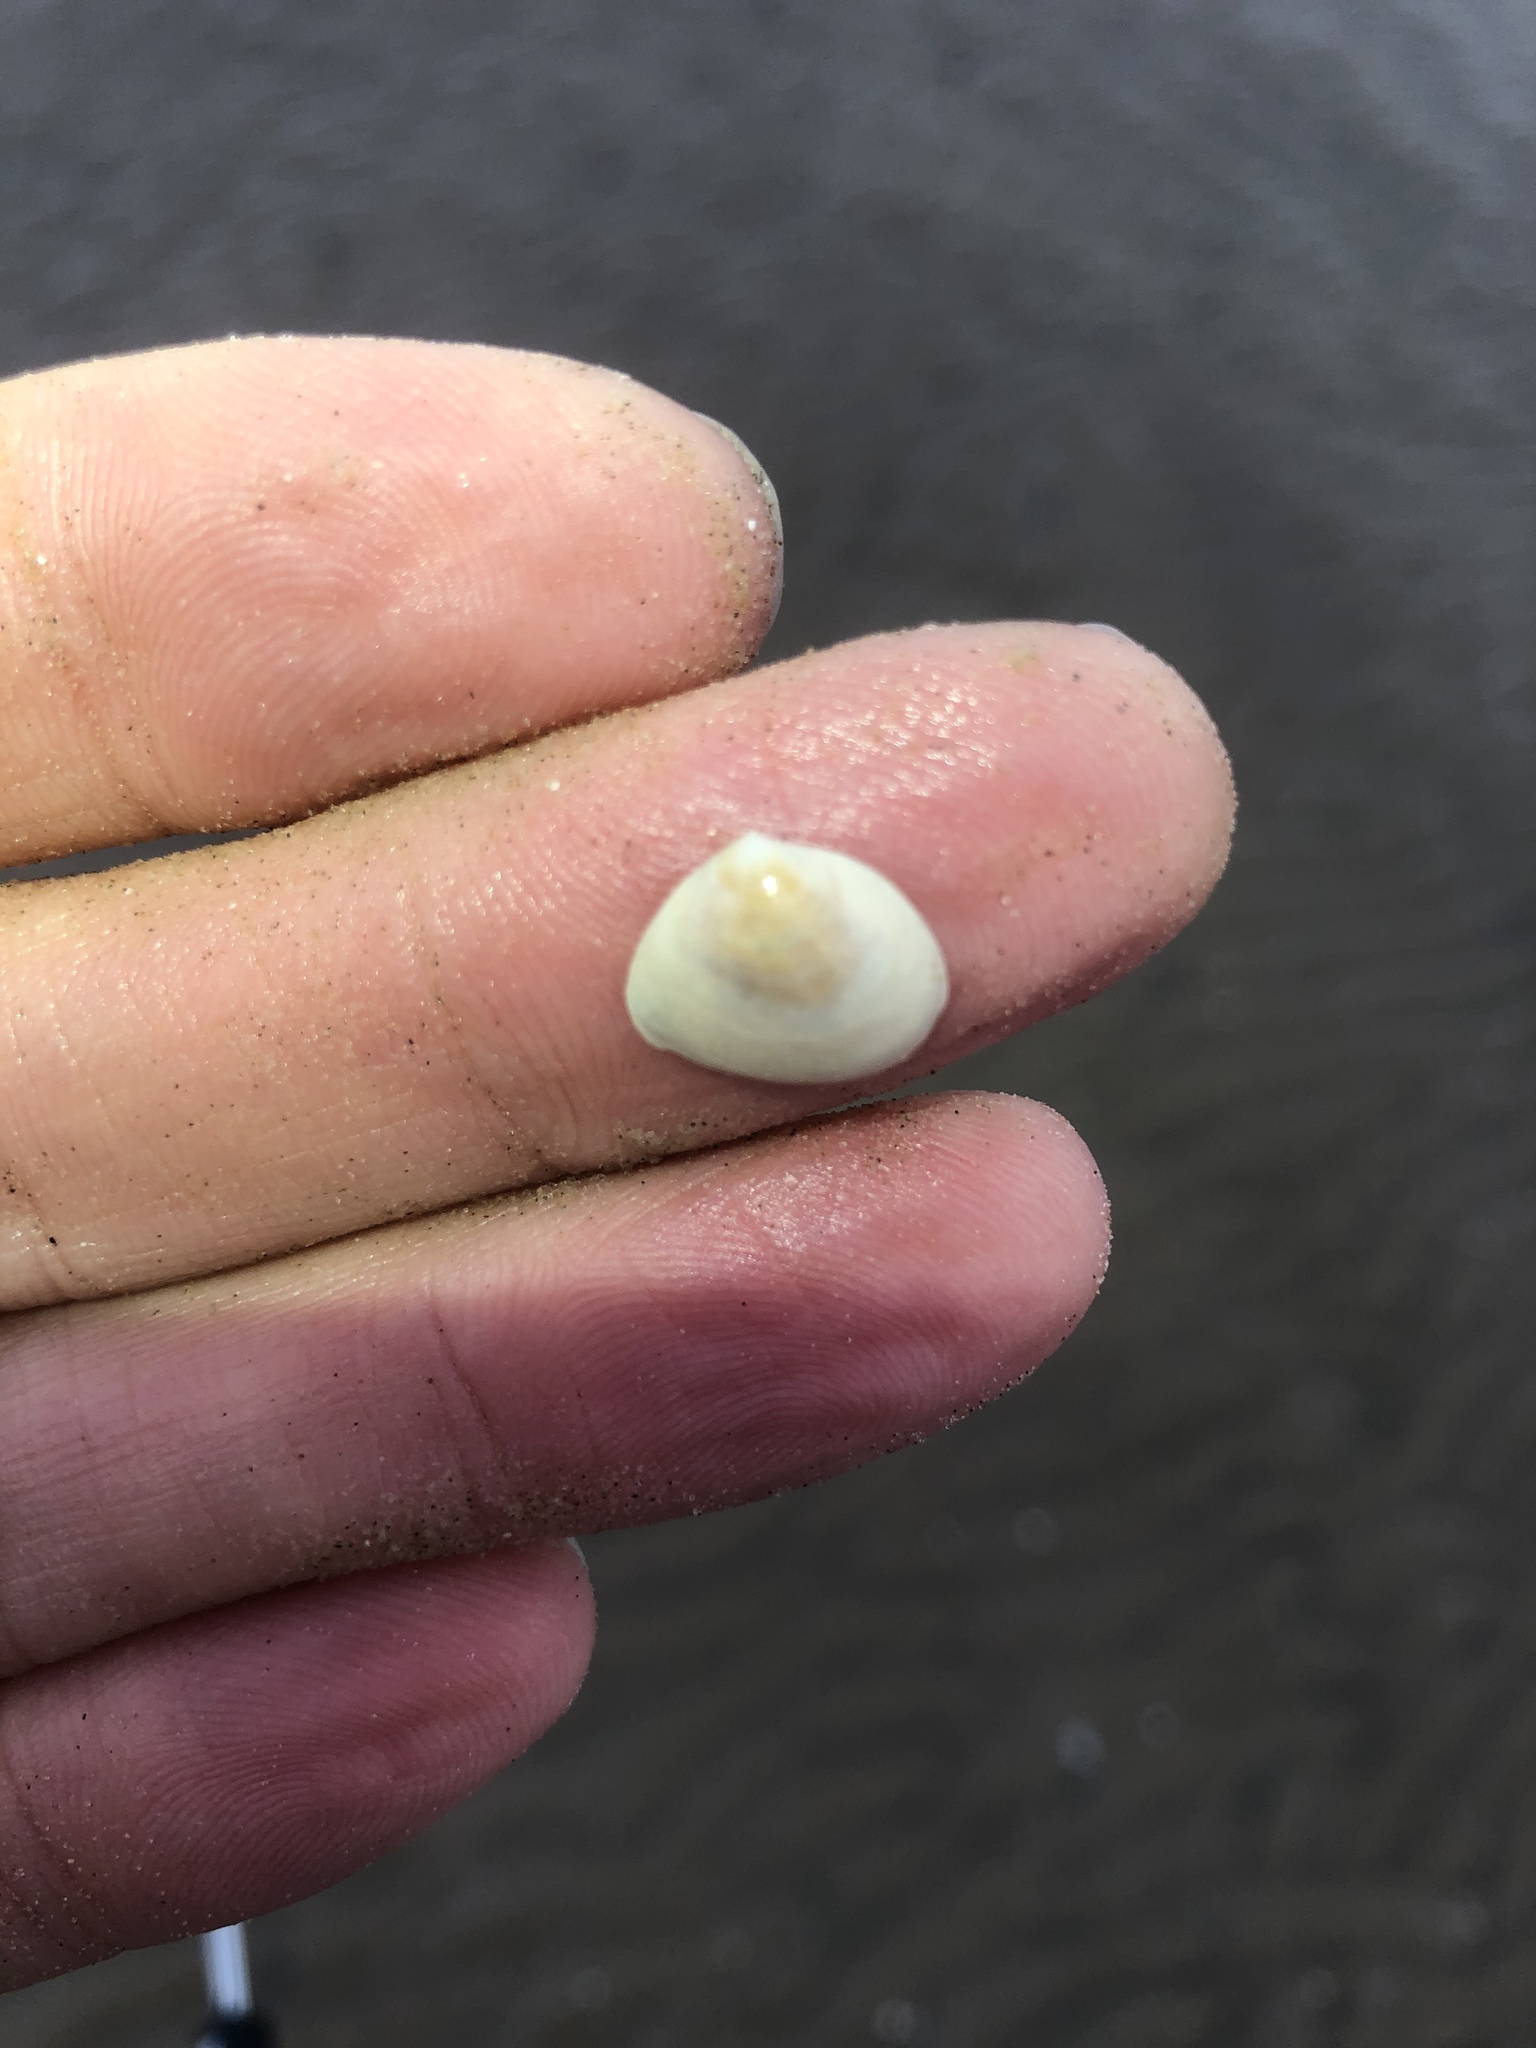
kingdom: Animalia
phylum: Mollusca
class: Bivalvia
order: Cardiida
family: Semelidae
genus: Abra
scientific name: Abra aequalis
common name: Common atlantic abra
